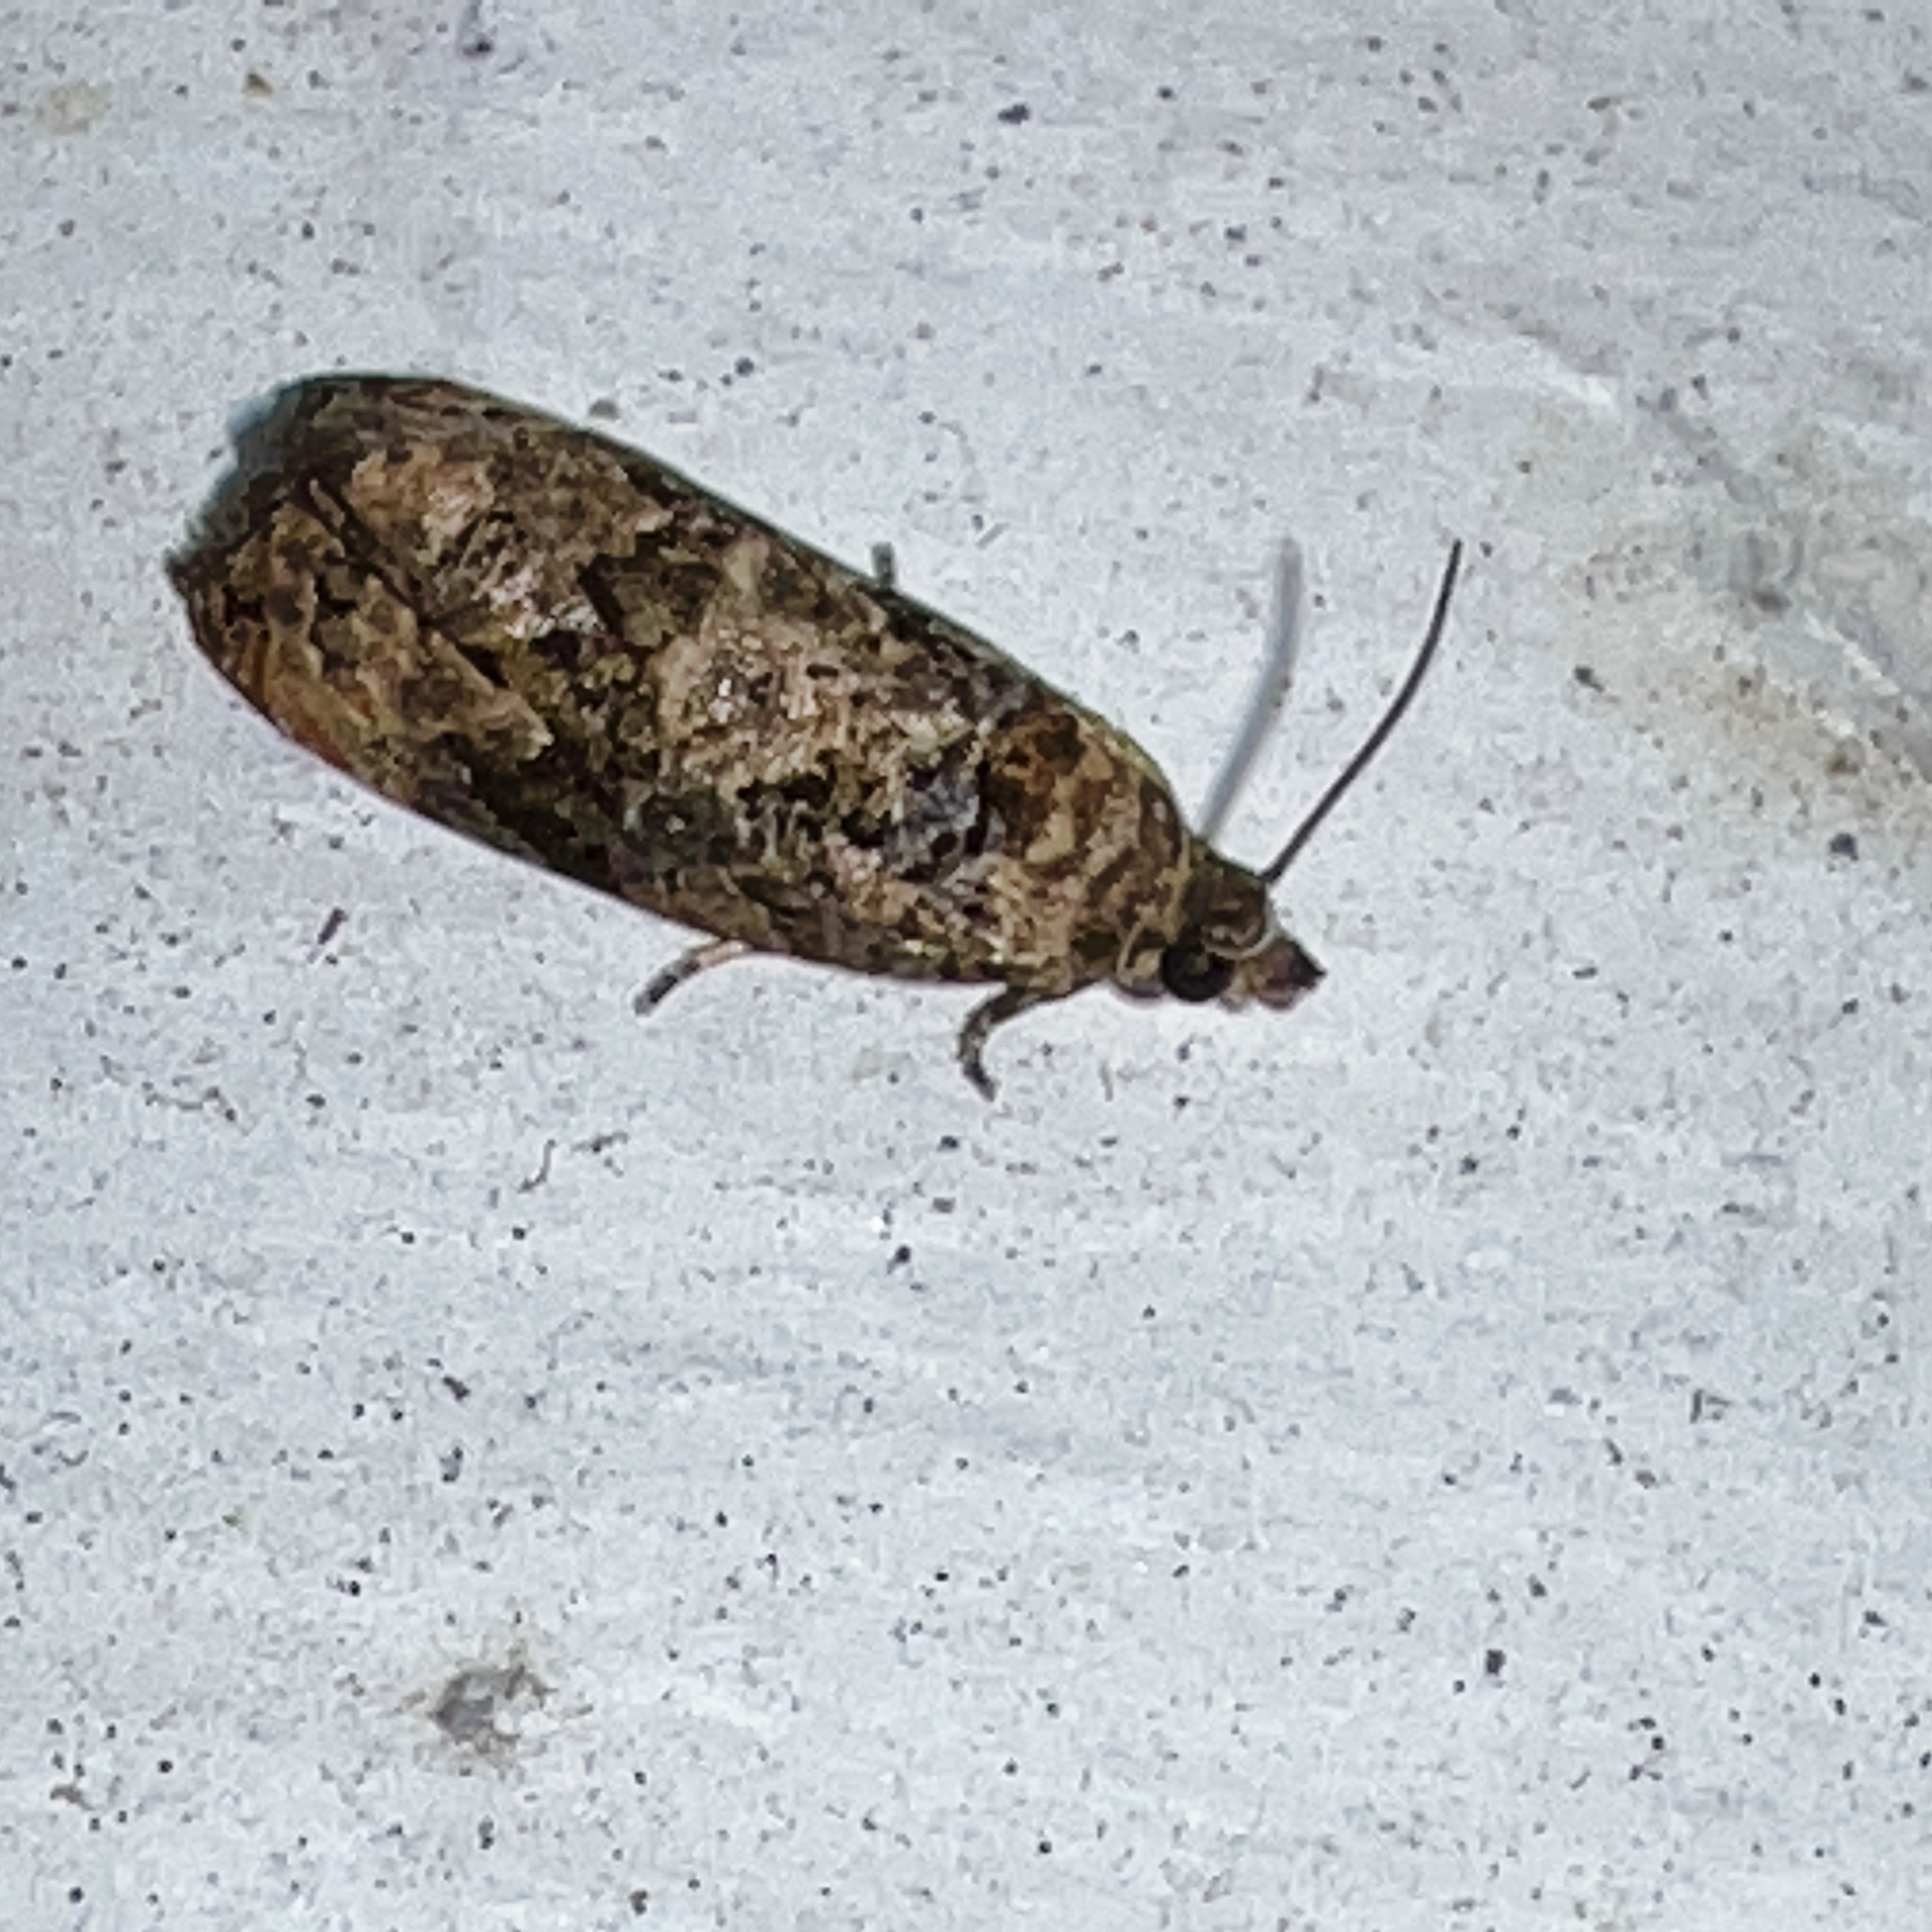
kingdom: Animalia
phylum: Arthropoda
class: Insecta
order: Lepidoptera
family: Tortricidae
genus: Endothenia
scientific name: Endothenia hebesana
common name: Verbena bud moth
